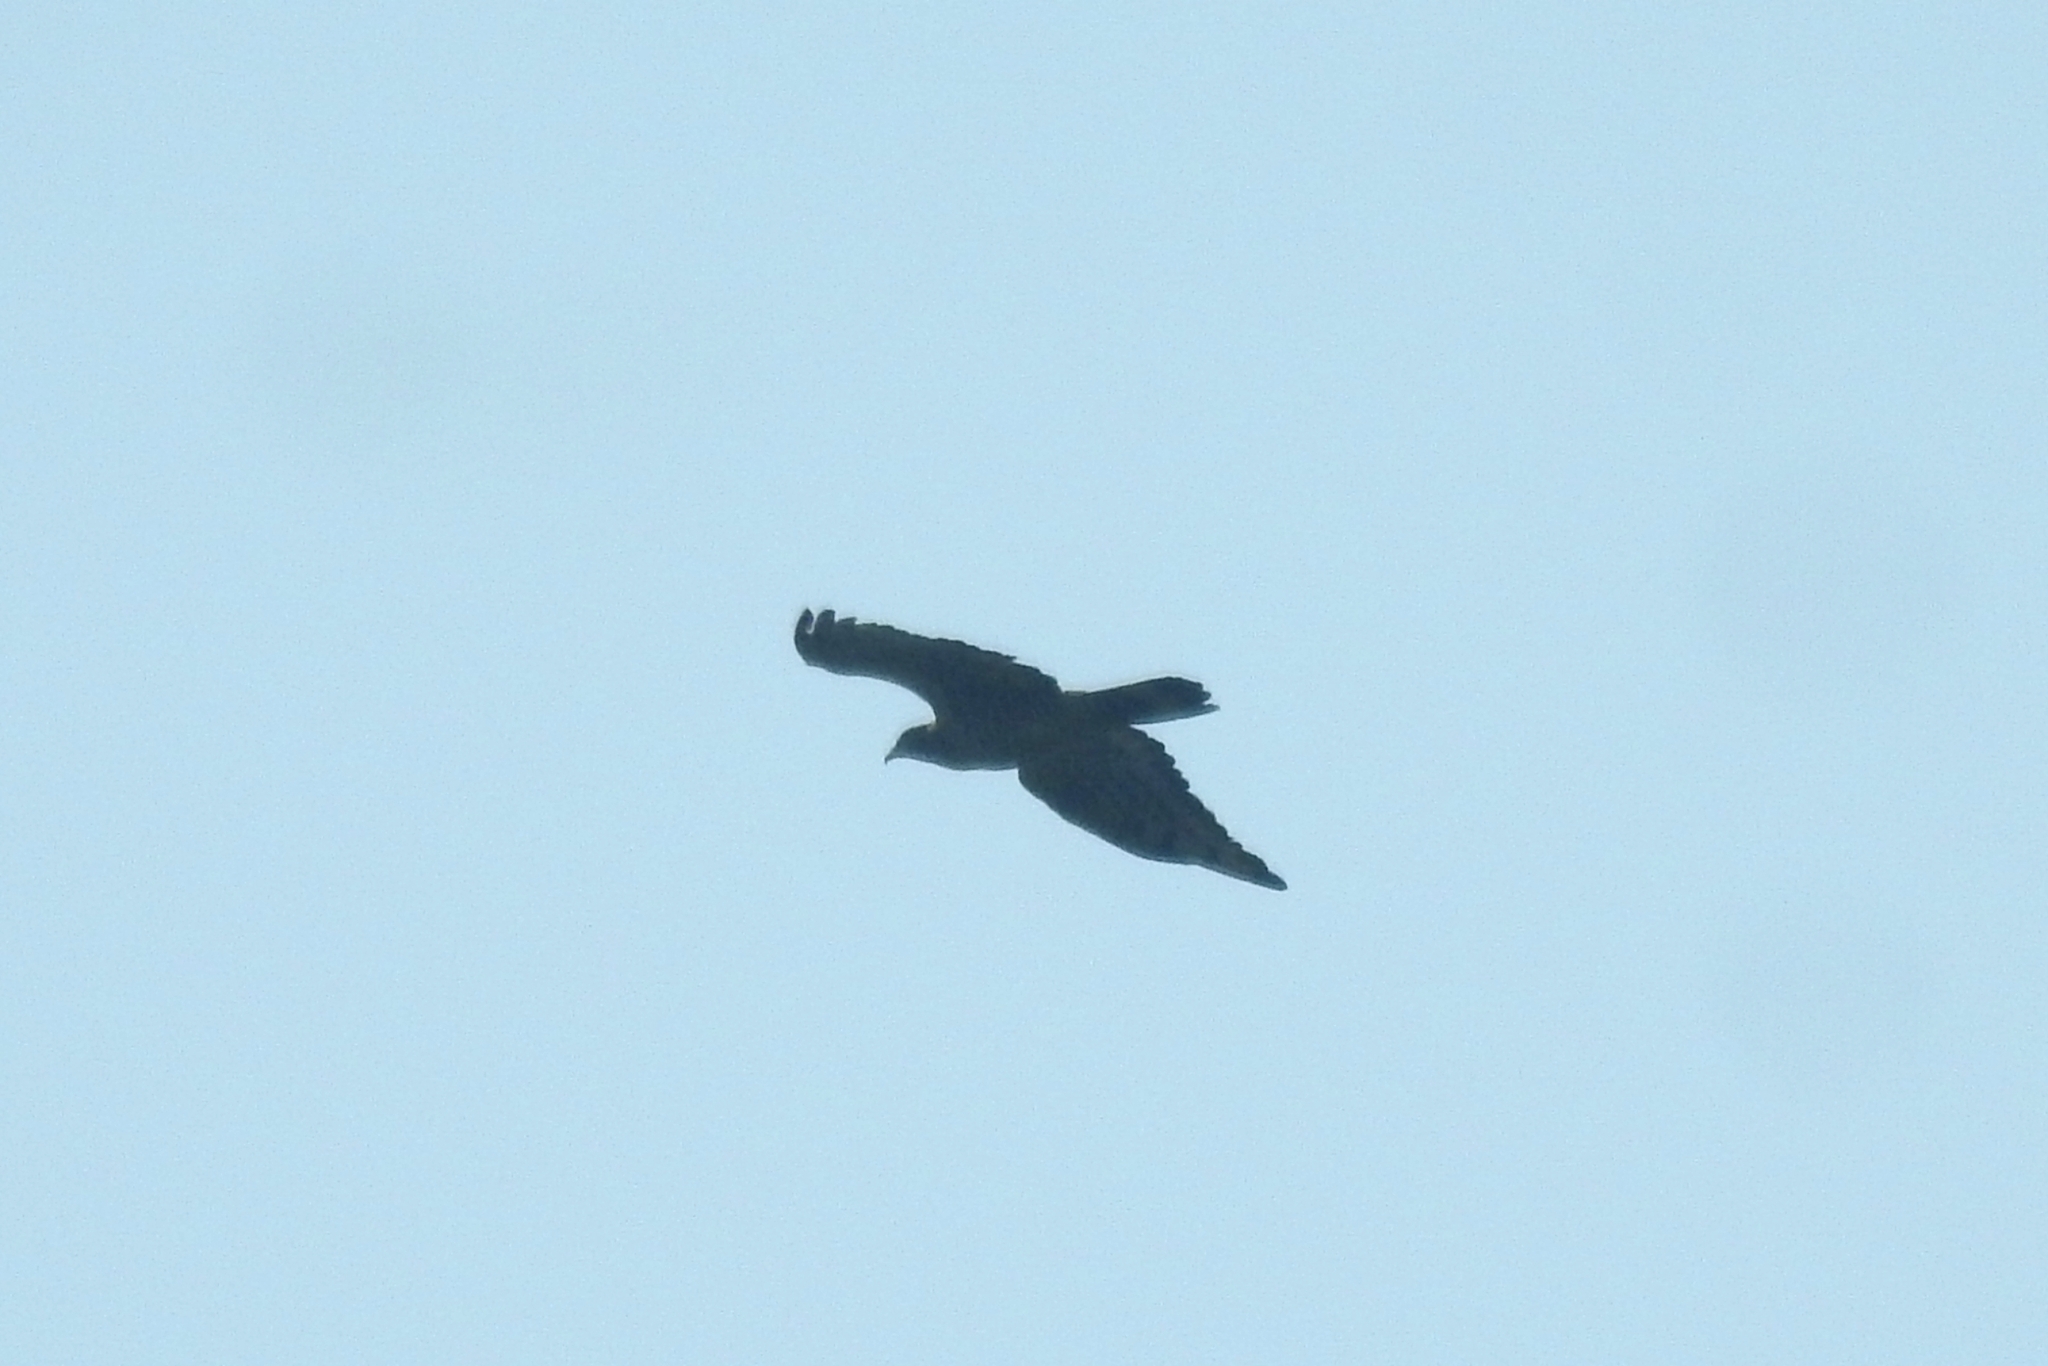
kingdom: Animalia
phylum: Chordata
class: Aves
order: Accipitriformes
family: Accipitridae
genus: Pernis
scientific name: Pernis ptilorhynchus
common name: Crested honey buzzard
